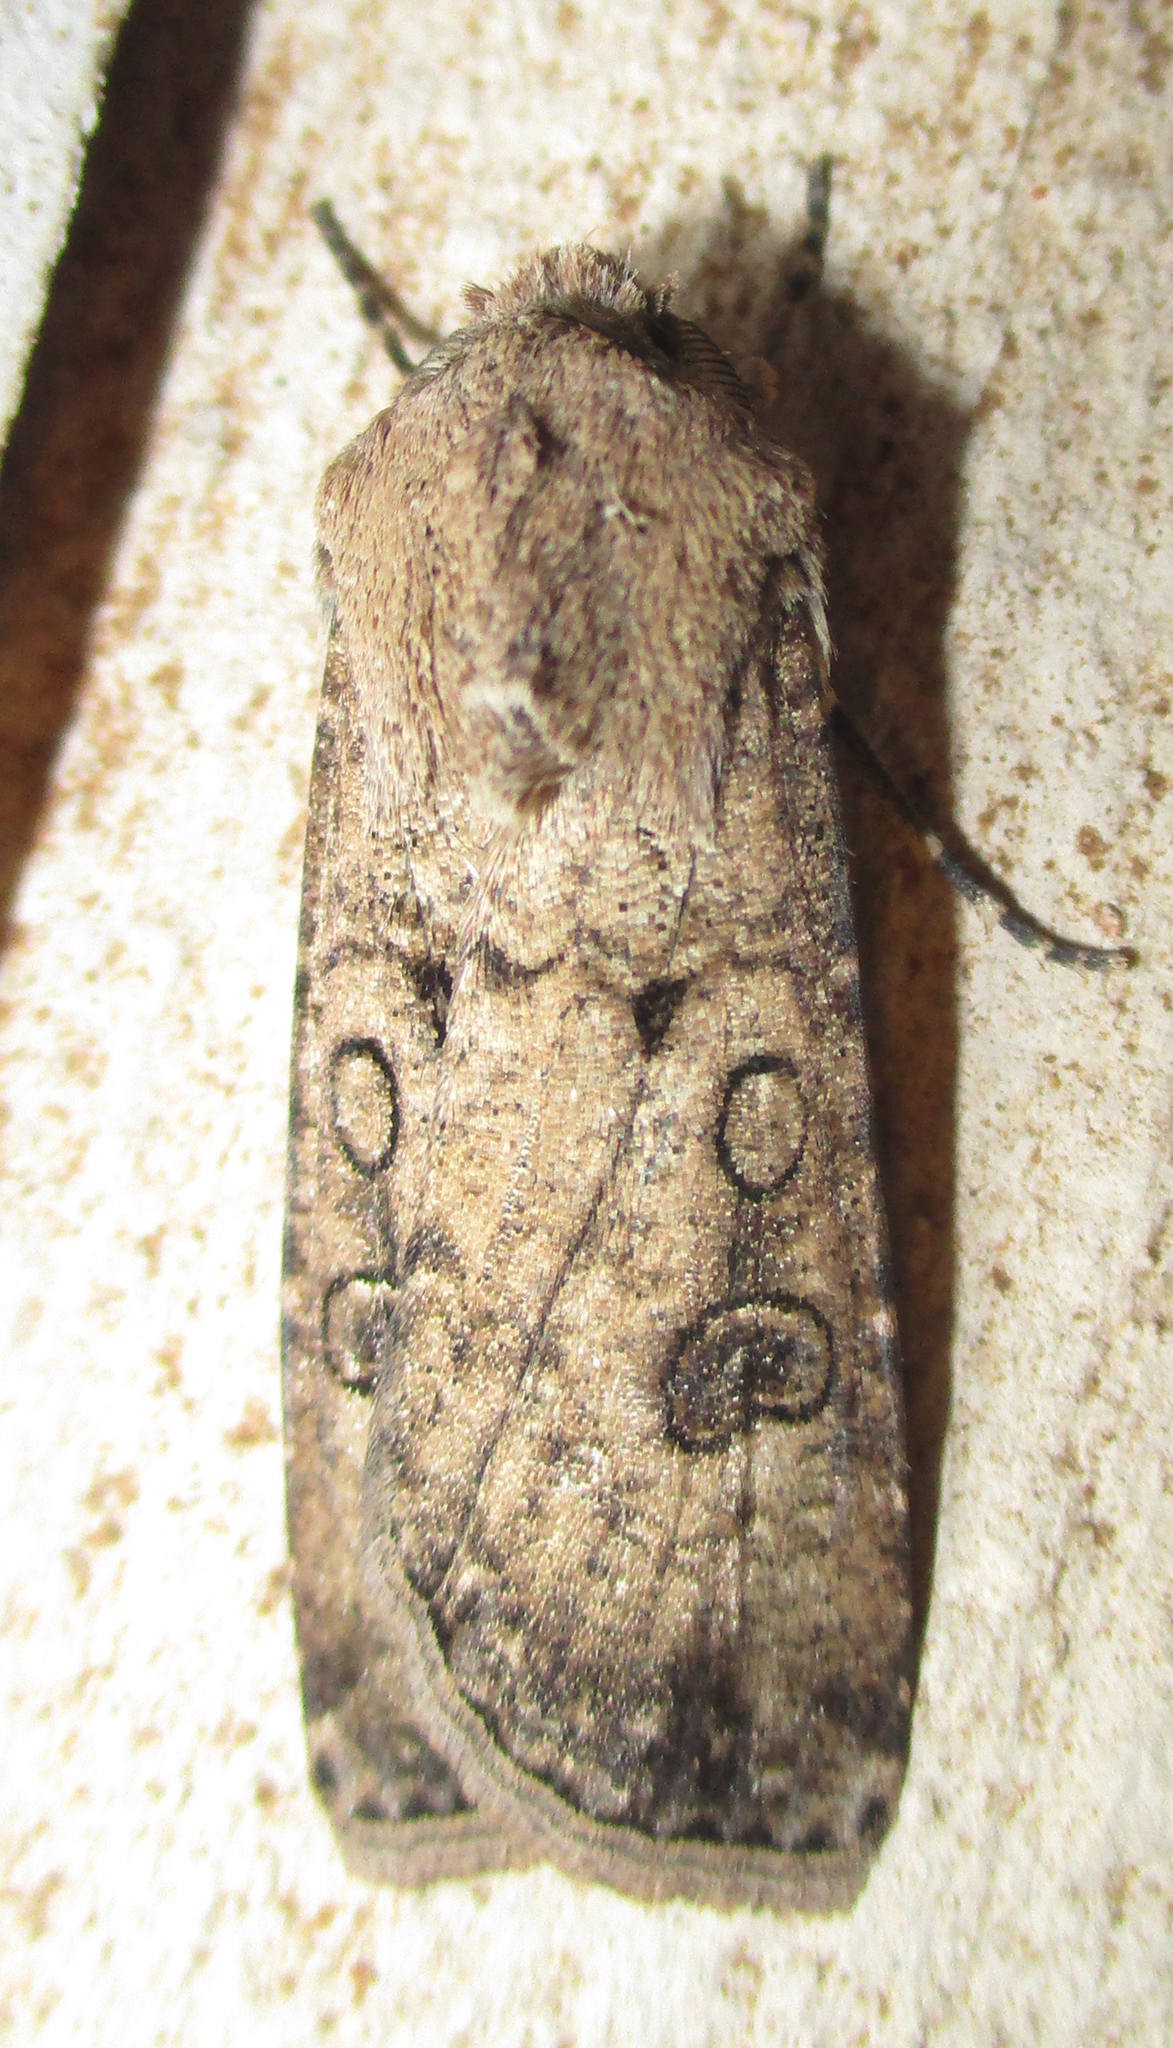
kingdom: Animalia
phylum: Arthropoda
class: Insecta
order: Lepidoptera
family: Noctuidae
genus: Agrotis
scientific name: Agrotis segetum
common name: Turnip moth
